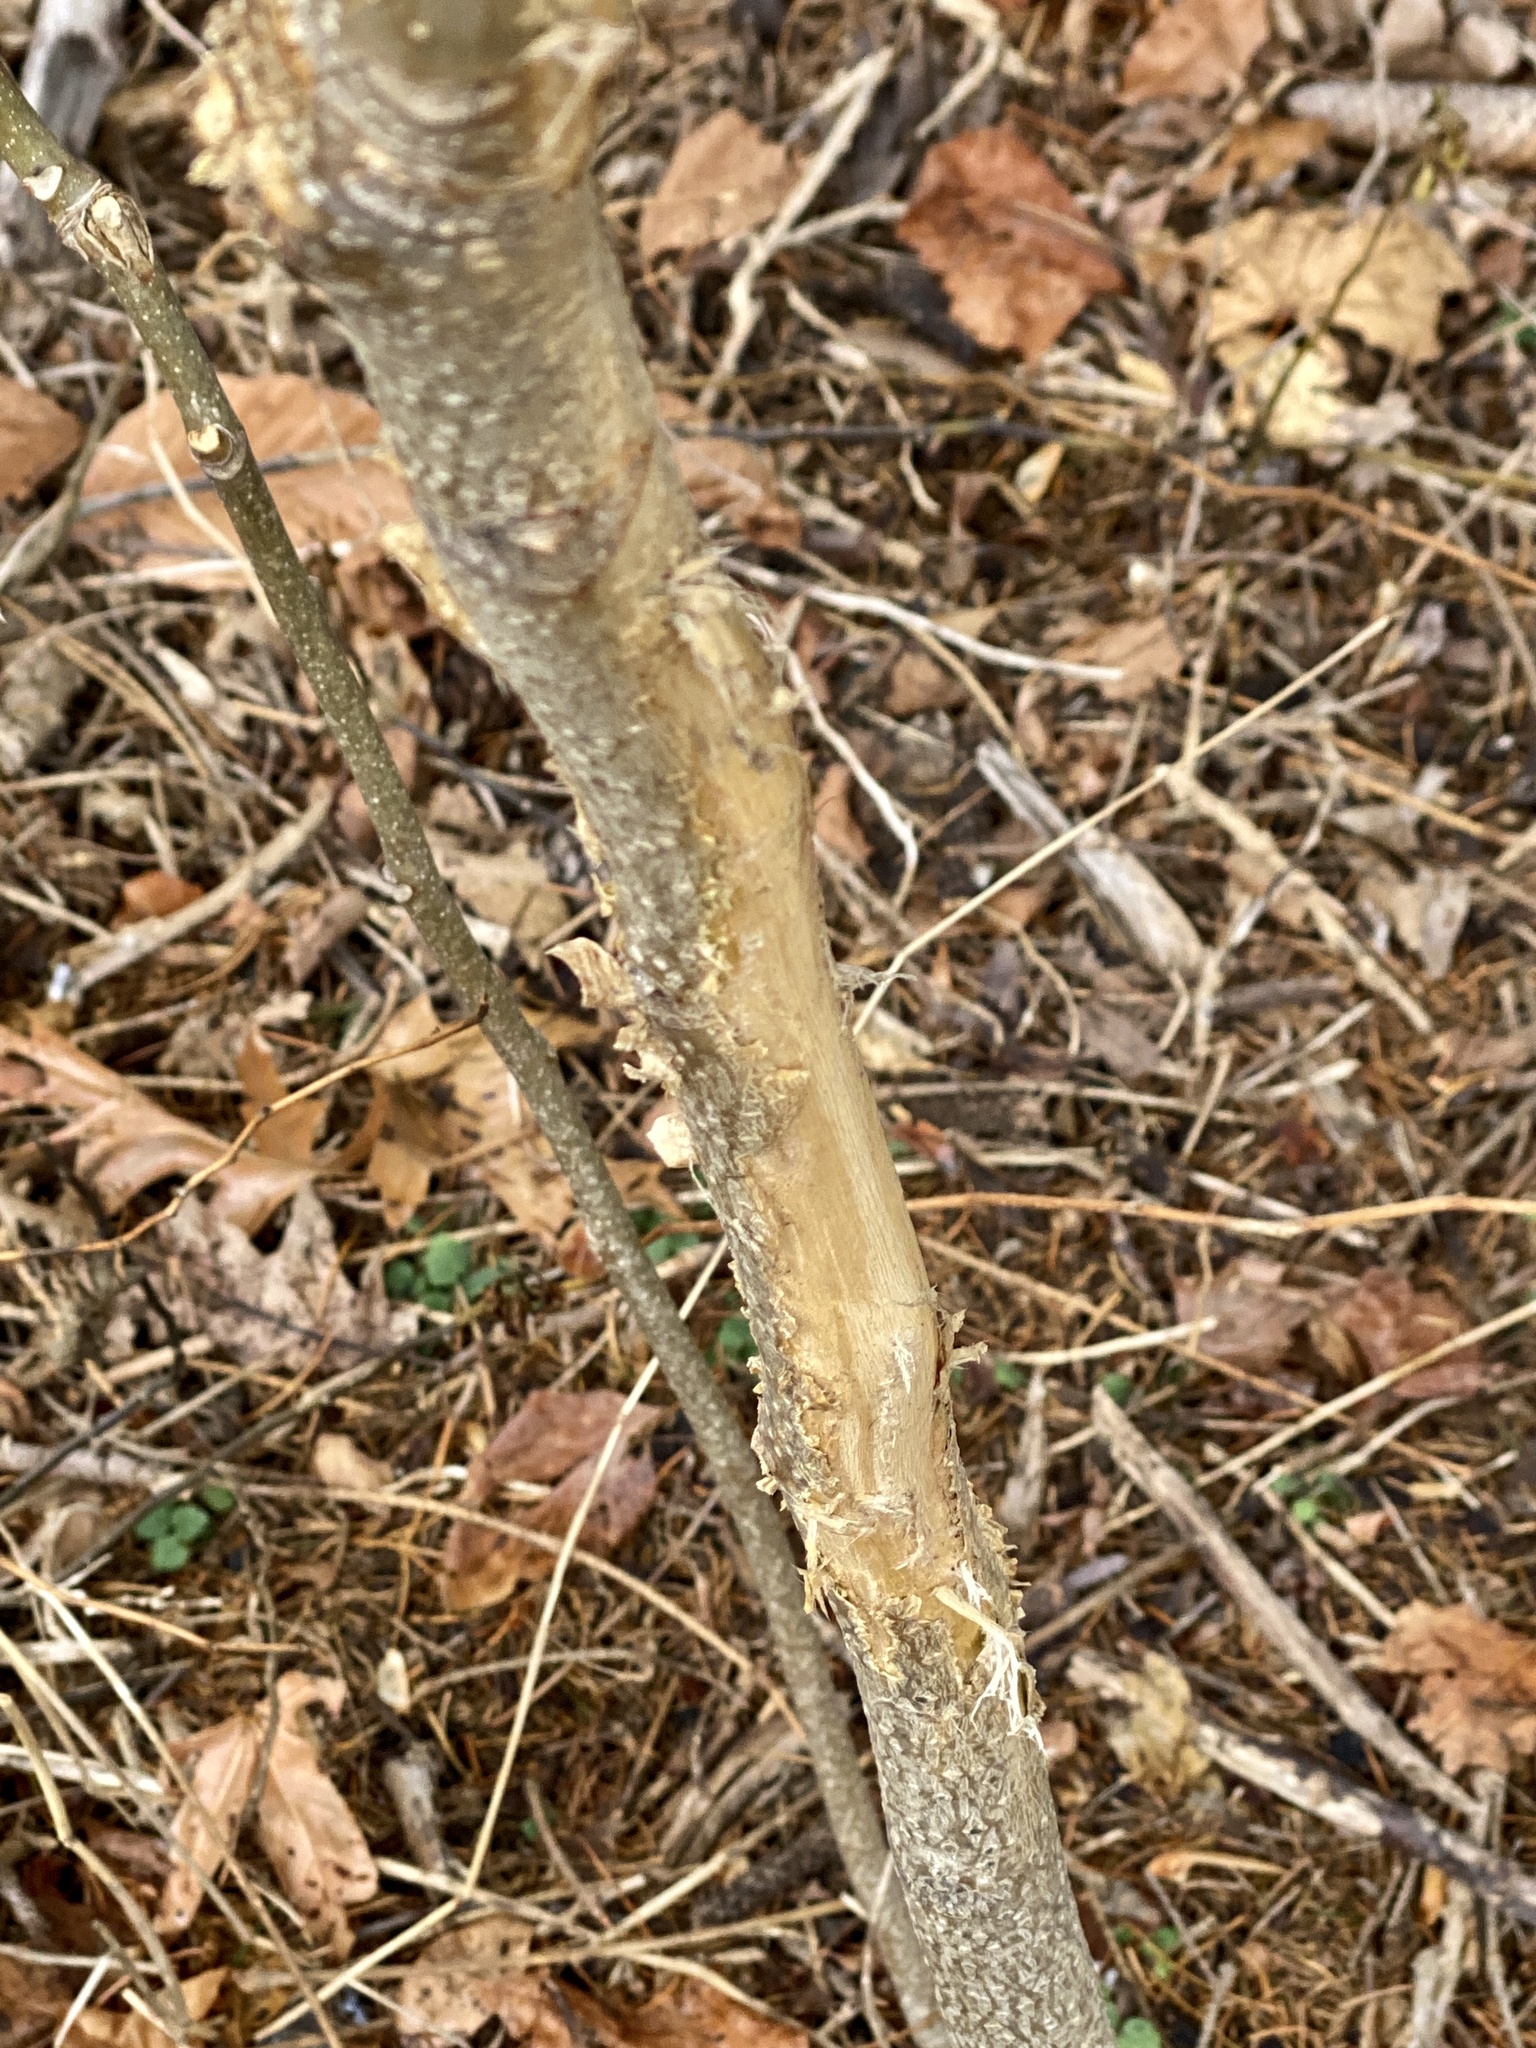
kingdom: Animalia
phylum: Chordata
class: Mammalia
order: Artiodactyla
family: Cervidae
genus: Odocoileus
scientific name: Odocoileus virginianus
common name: White-tailed deer
